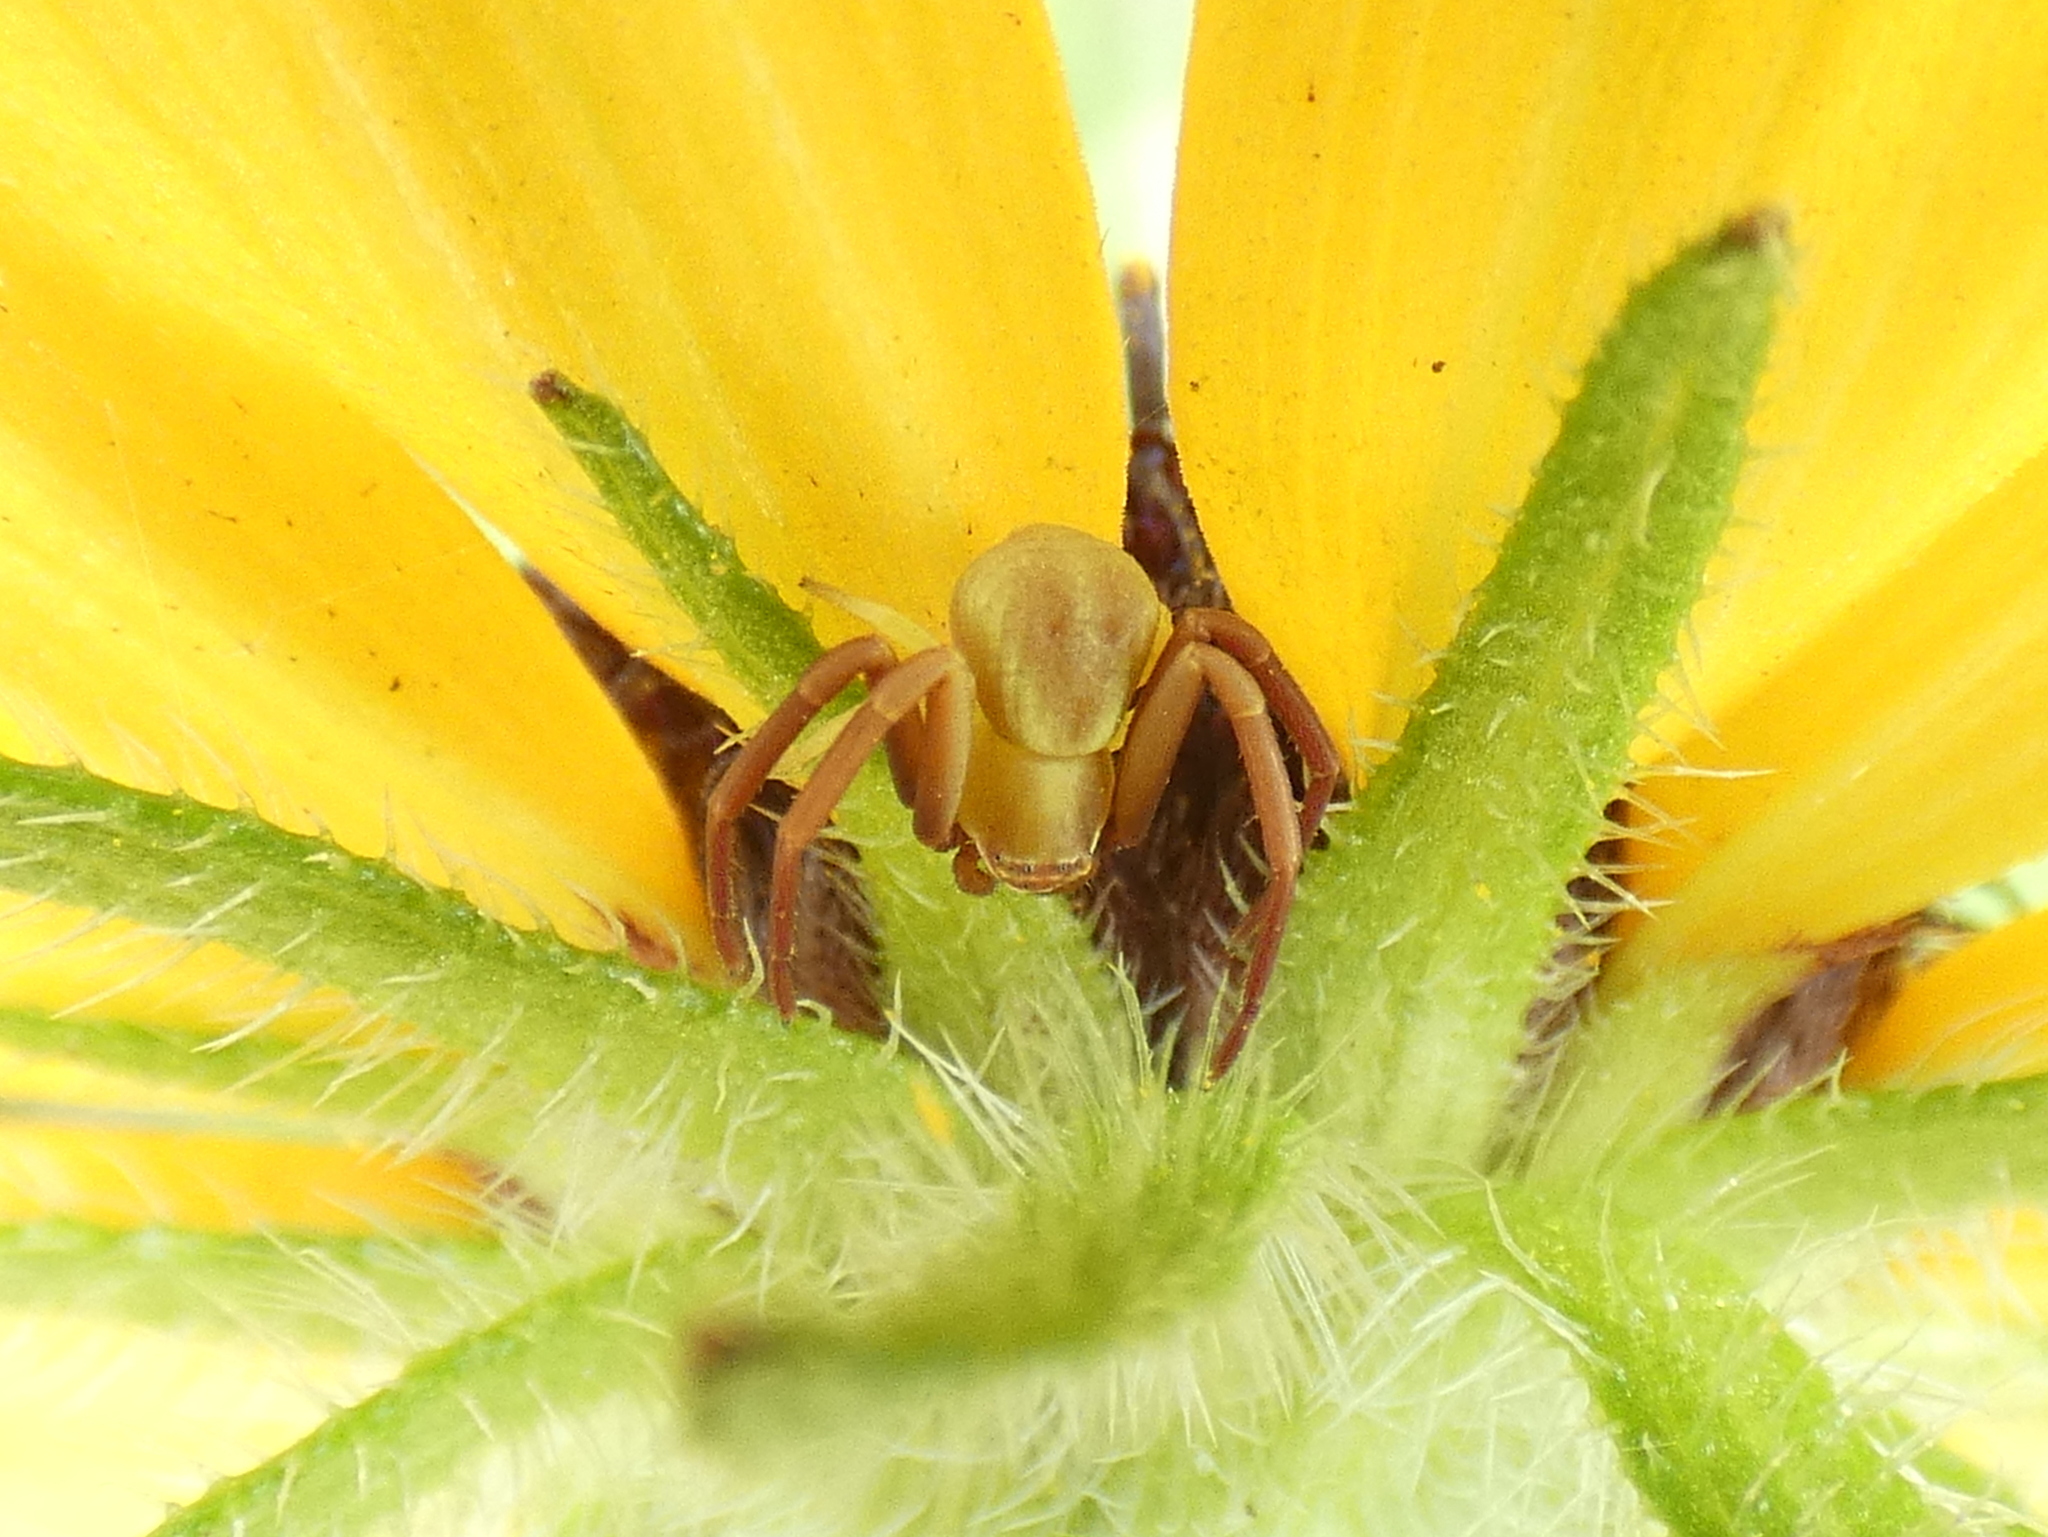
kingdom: Animalia
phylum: Arthropoda
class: Arachnida
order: Araneae
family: Thomisidae
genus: Misumenoides
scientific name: Misumenoides formosipes
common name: White-banded crab spider
